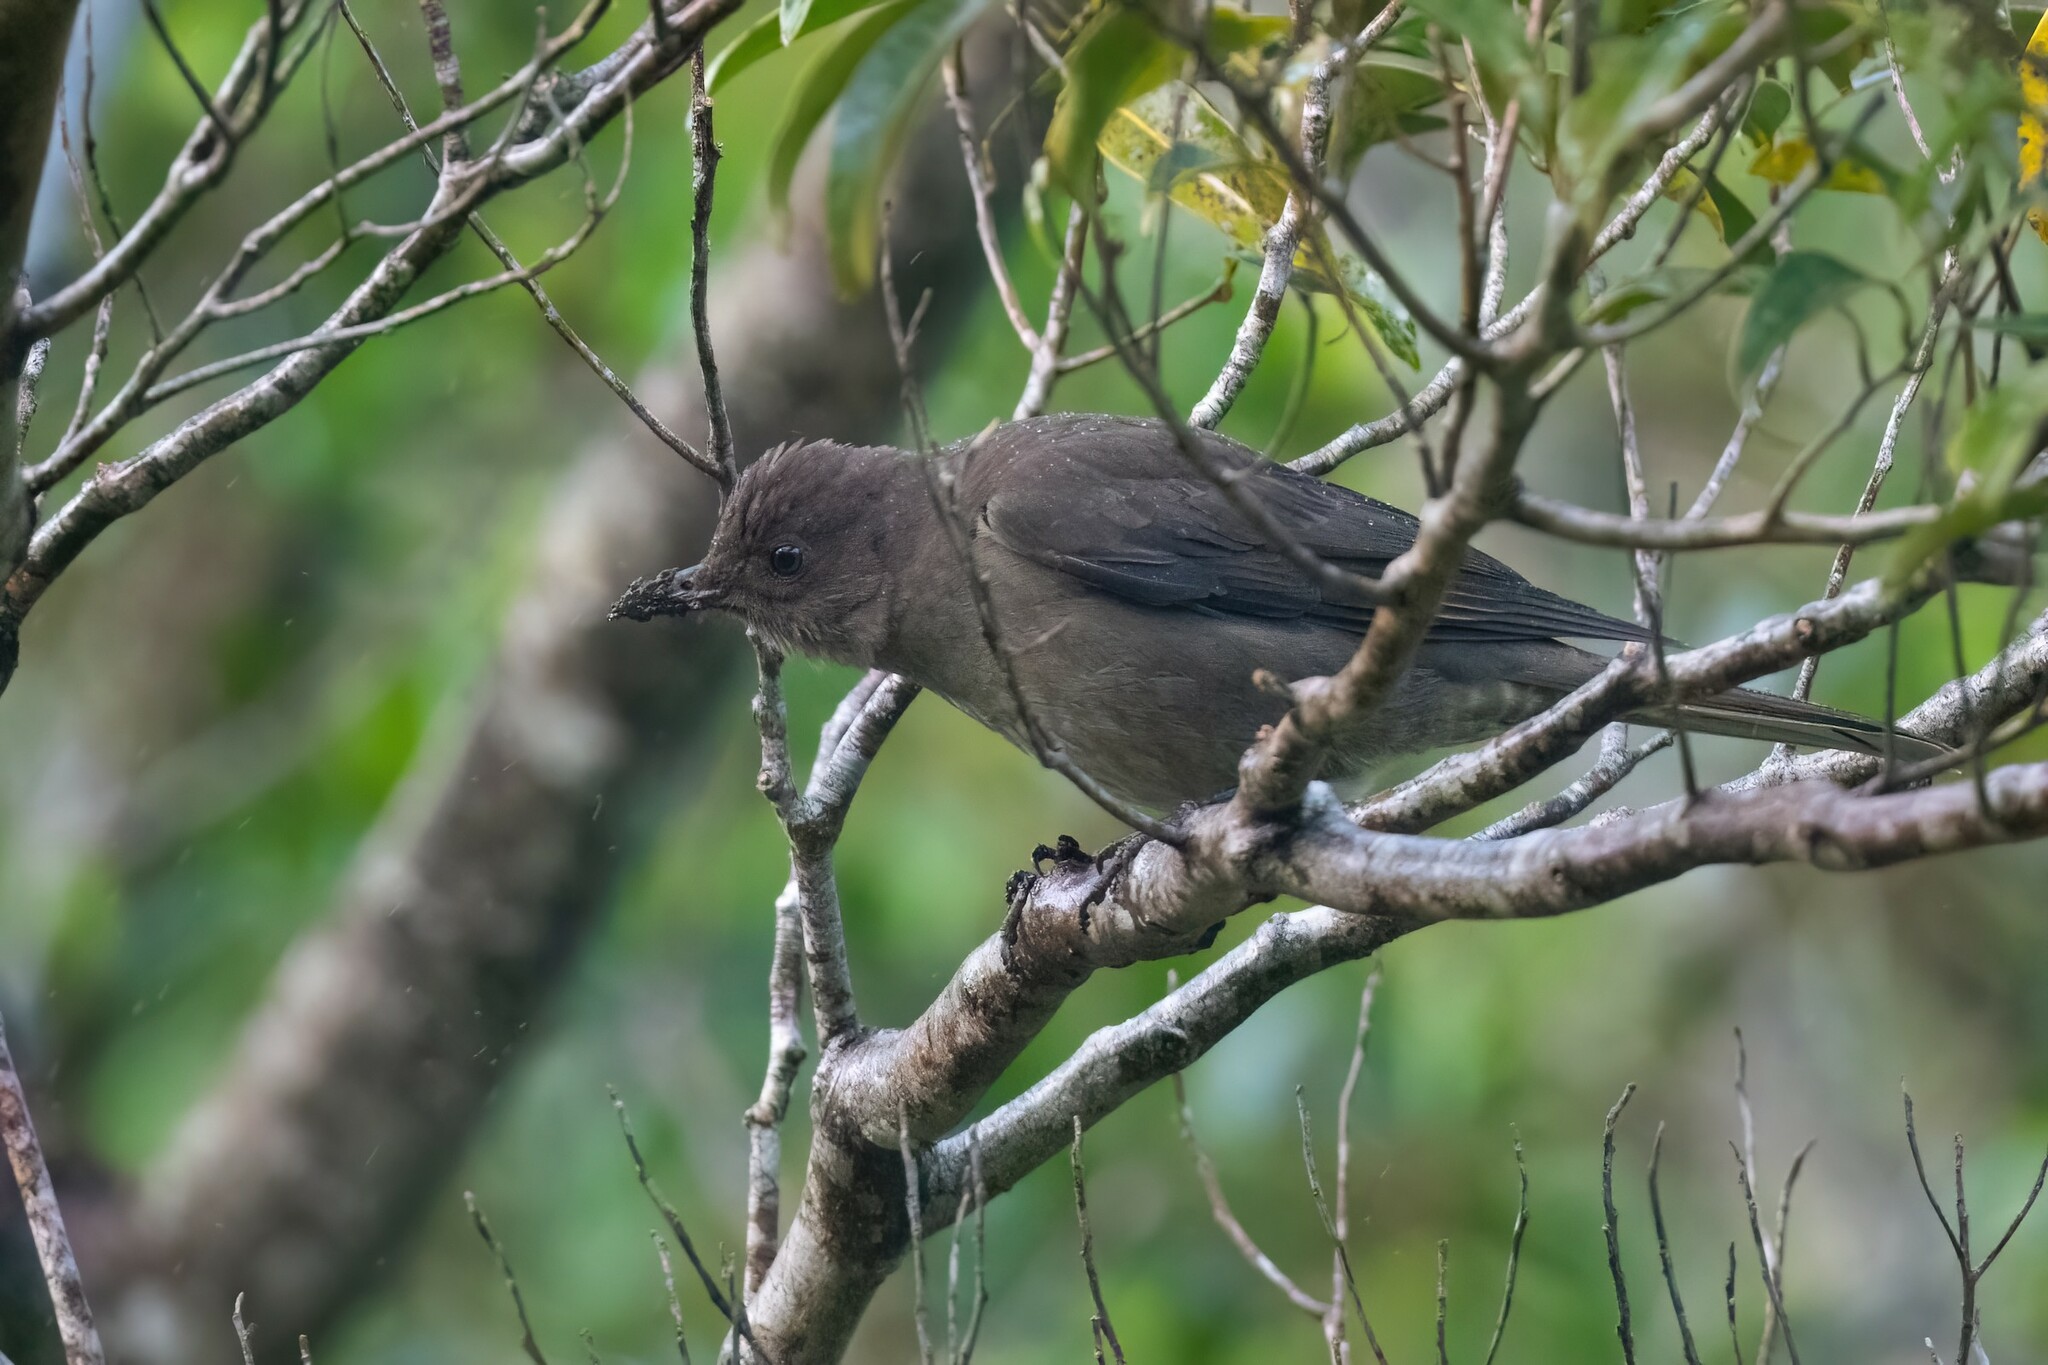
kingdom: Animalia
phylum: Chordata
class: Aves
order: Passeriformes
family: Turdidae
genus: Turdus
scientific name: Turdus plebejus
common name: Mountain thrush
